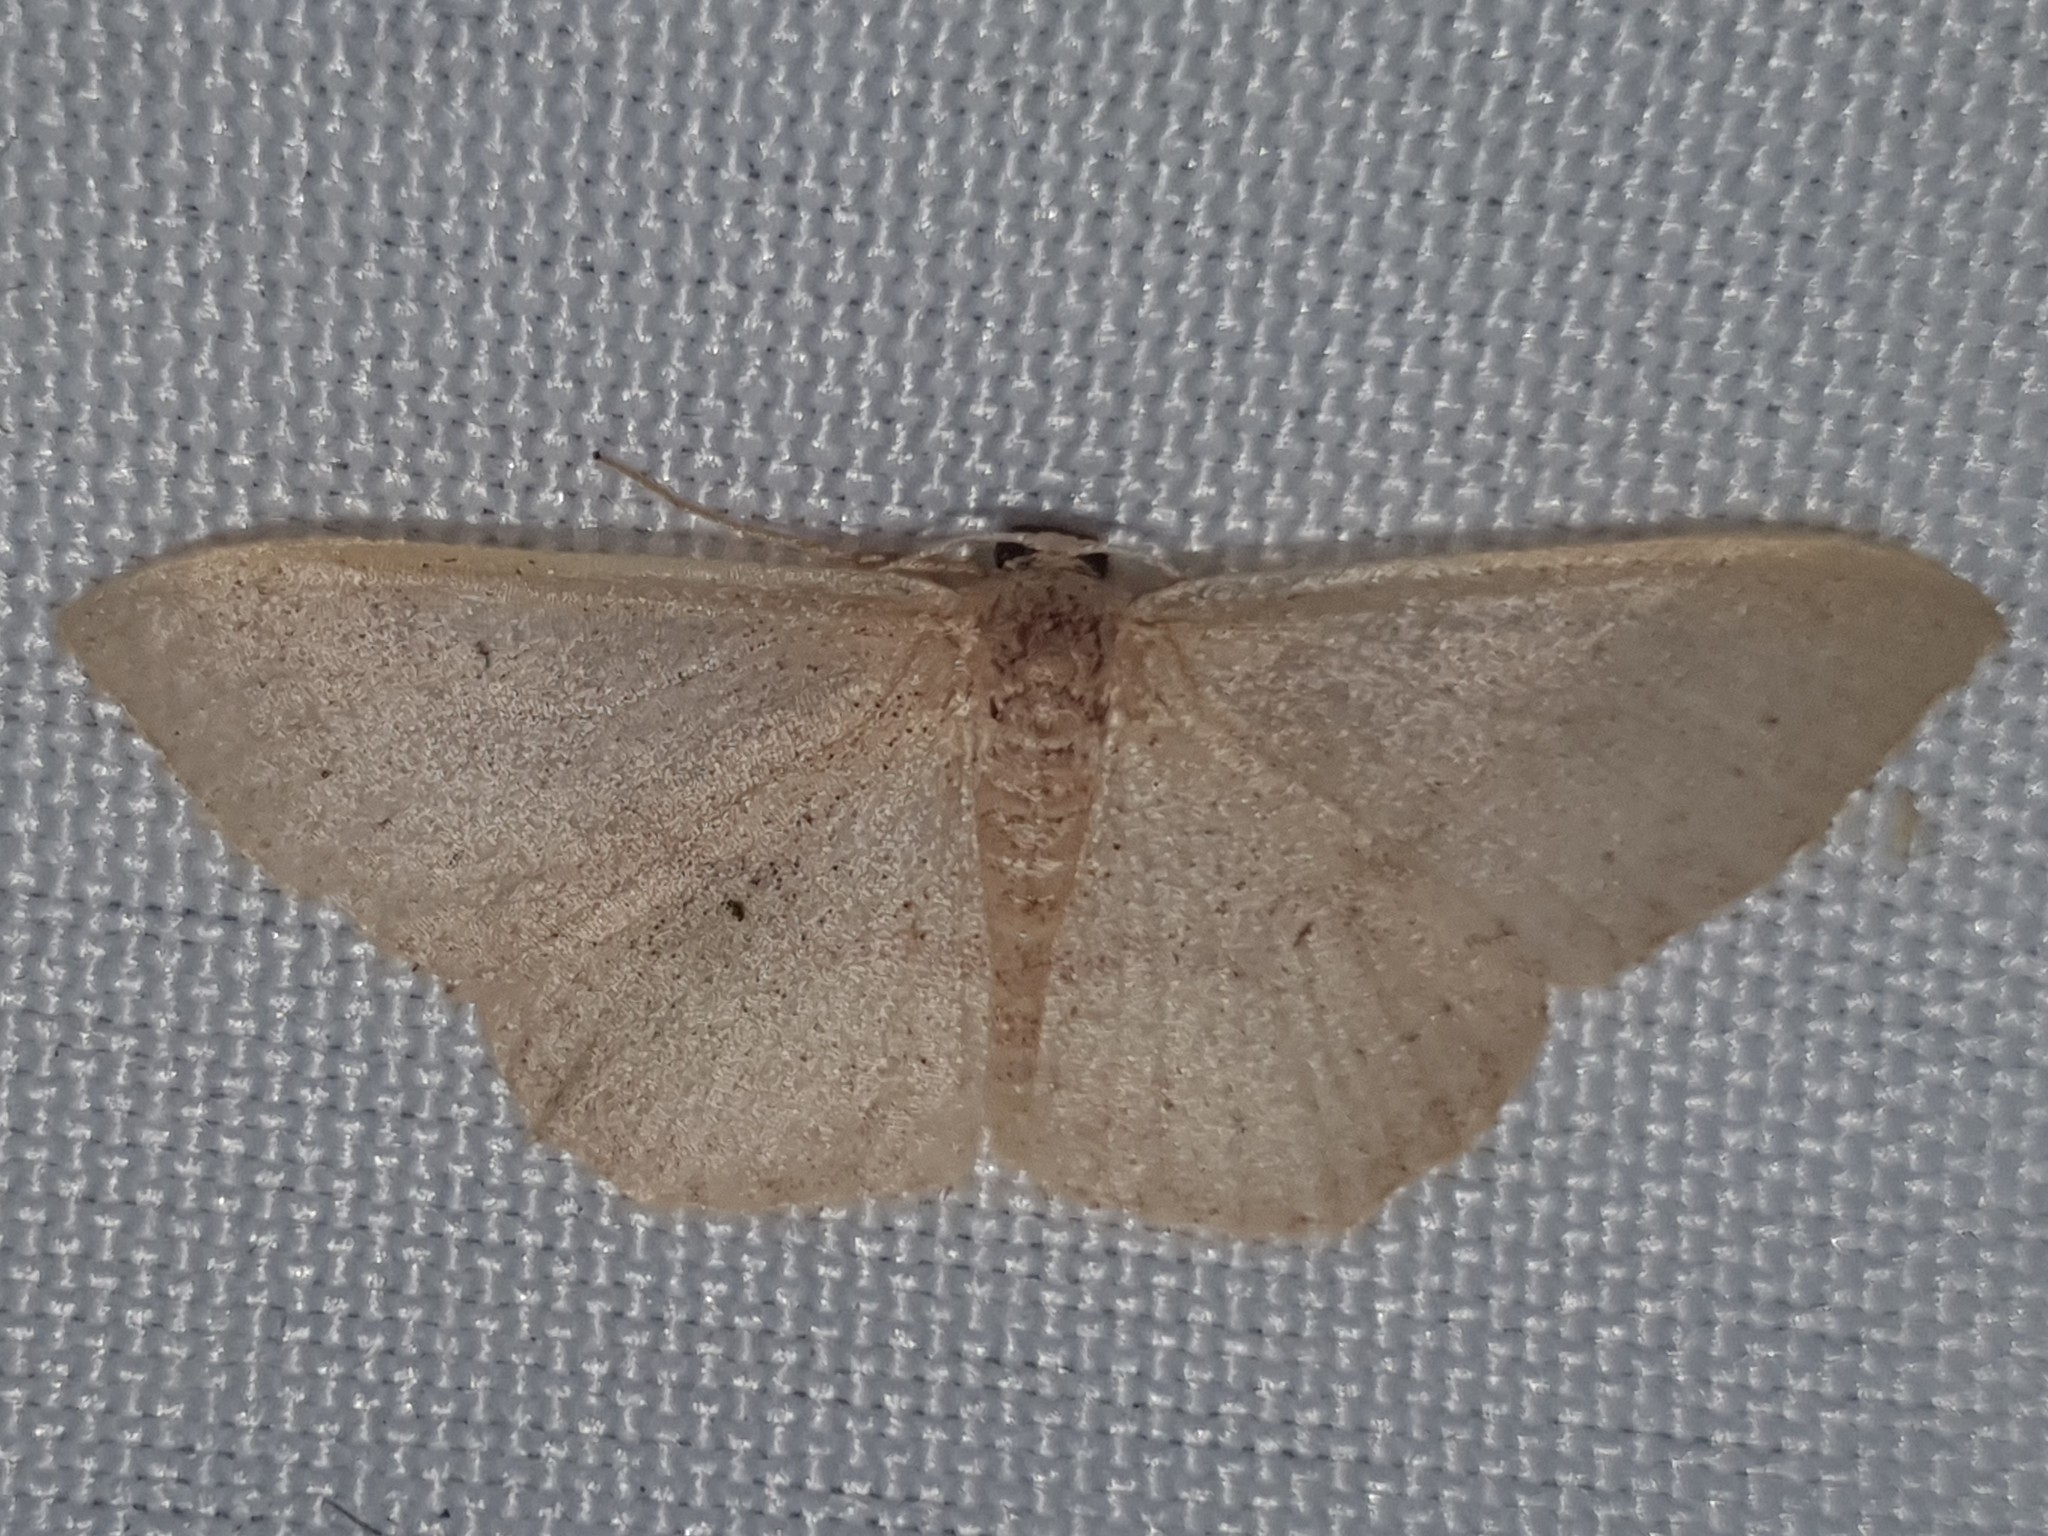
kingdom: Animalia
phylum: Arthropoda
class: Insecta
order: Lepidoptera
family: Geometridae
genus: Idaea
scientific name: Idaea eugeniata
